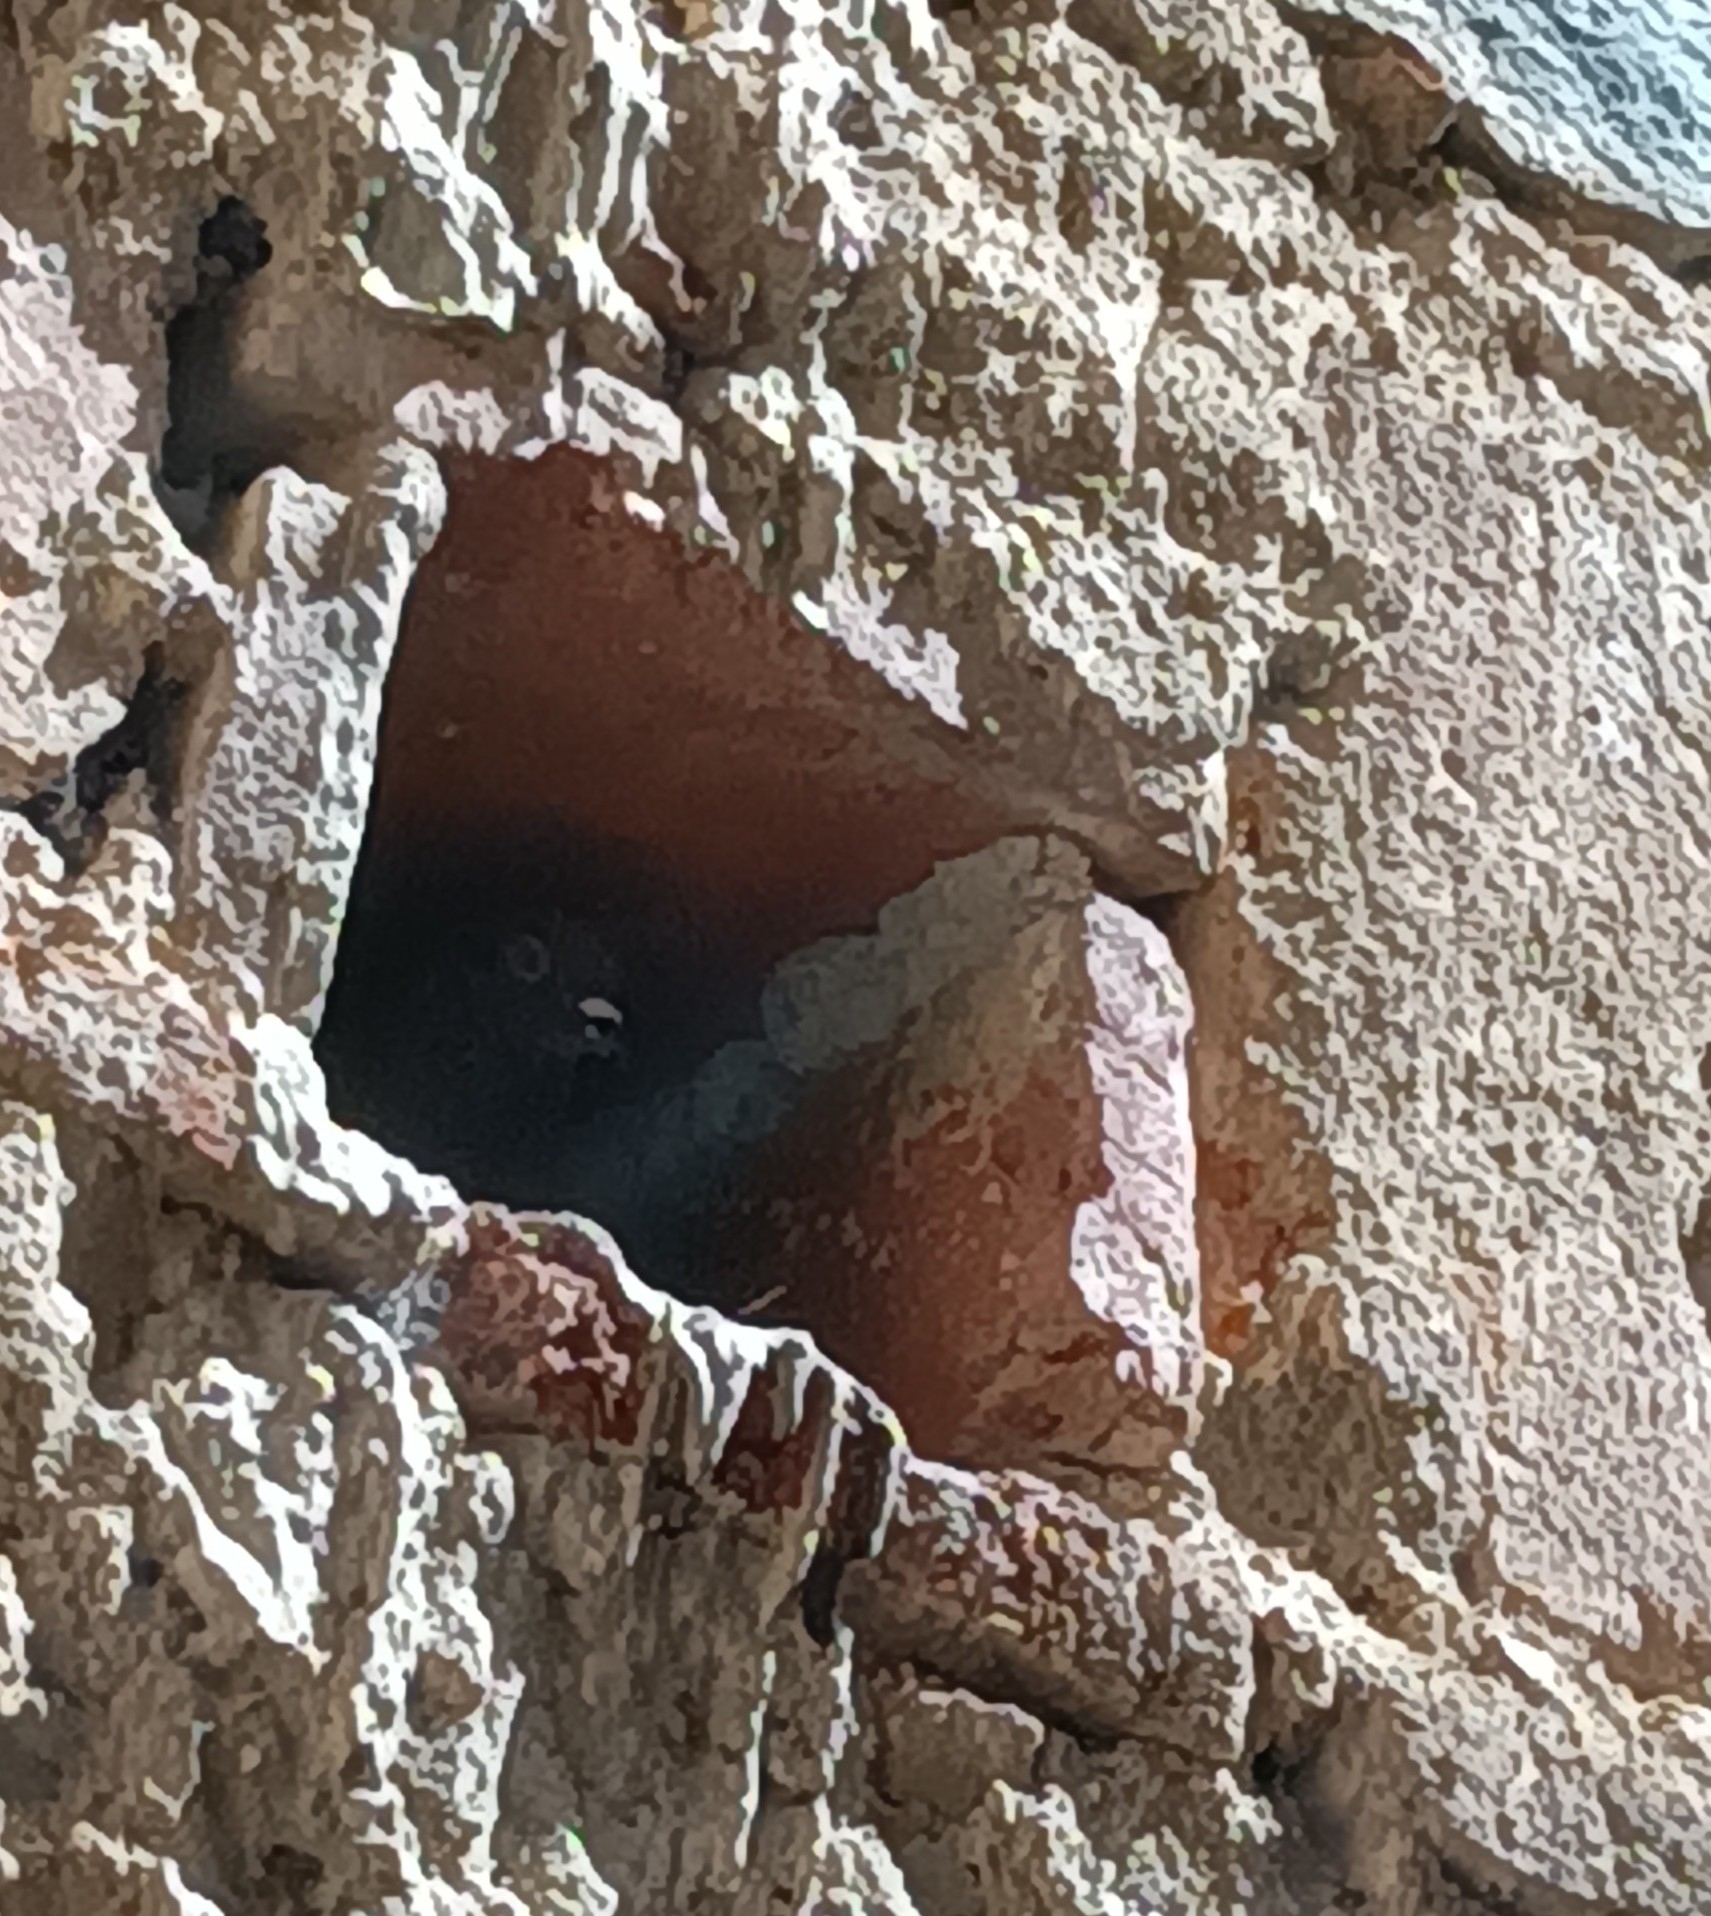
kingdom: Animalia
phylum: Chordata
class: Aves
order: Columbiformes
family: Columbidae
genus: Columba
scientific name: Columba livia
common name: Rock pigeon
